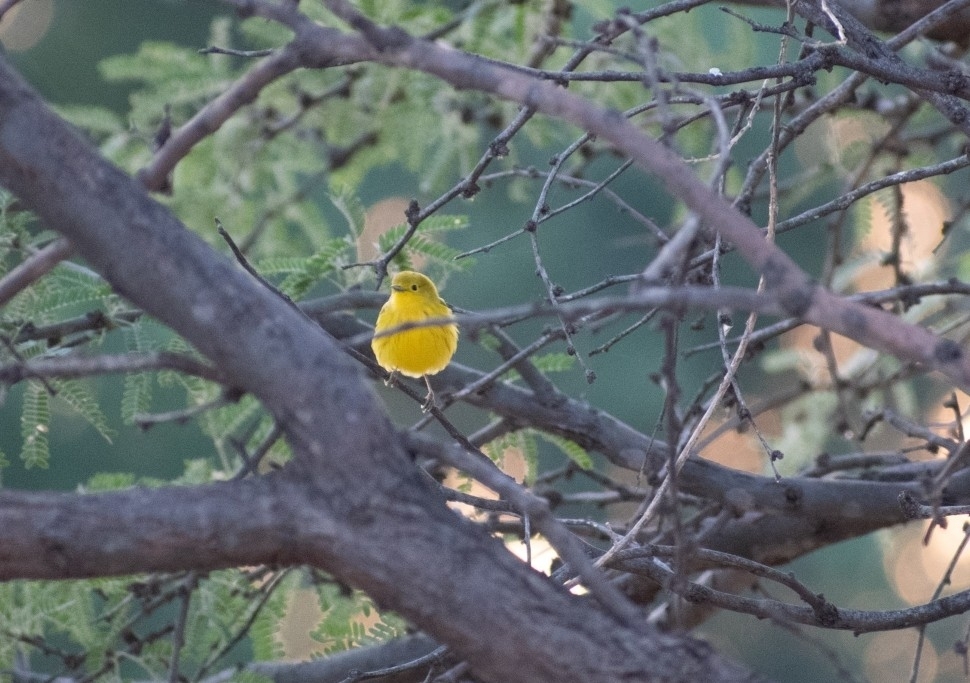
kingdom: Animalia
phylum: Chordata
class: Aves
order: Passeriformes
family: Parulidae
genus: Setophaga
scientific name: Setophaga petechia
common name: Yellow warbler
